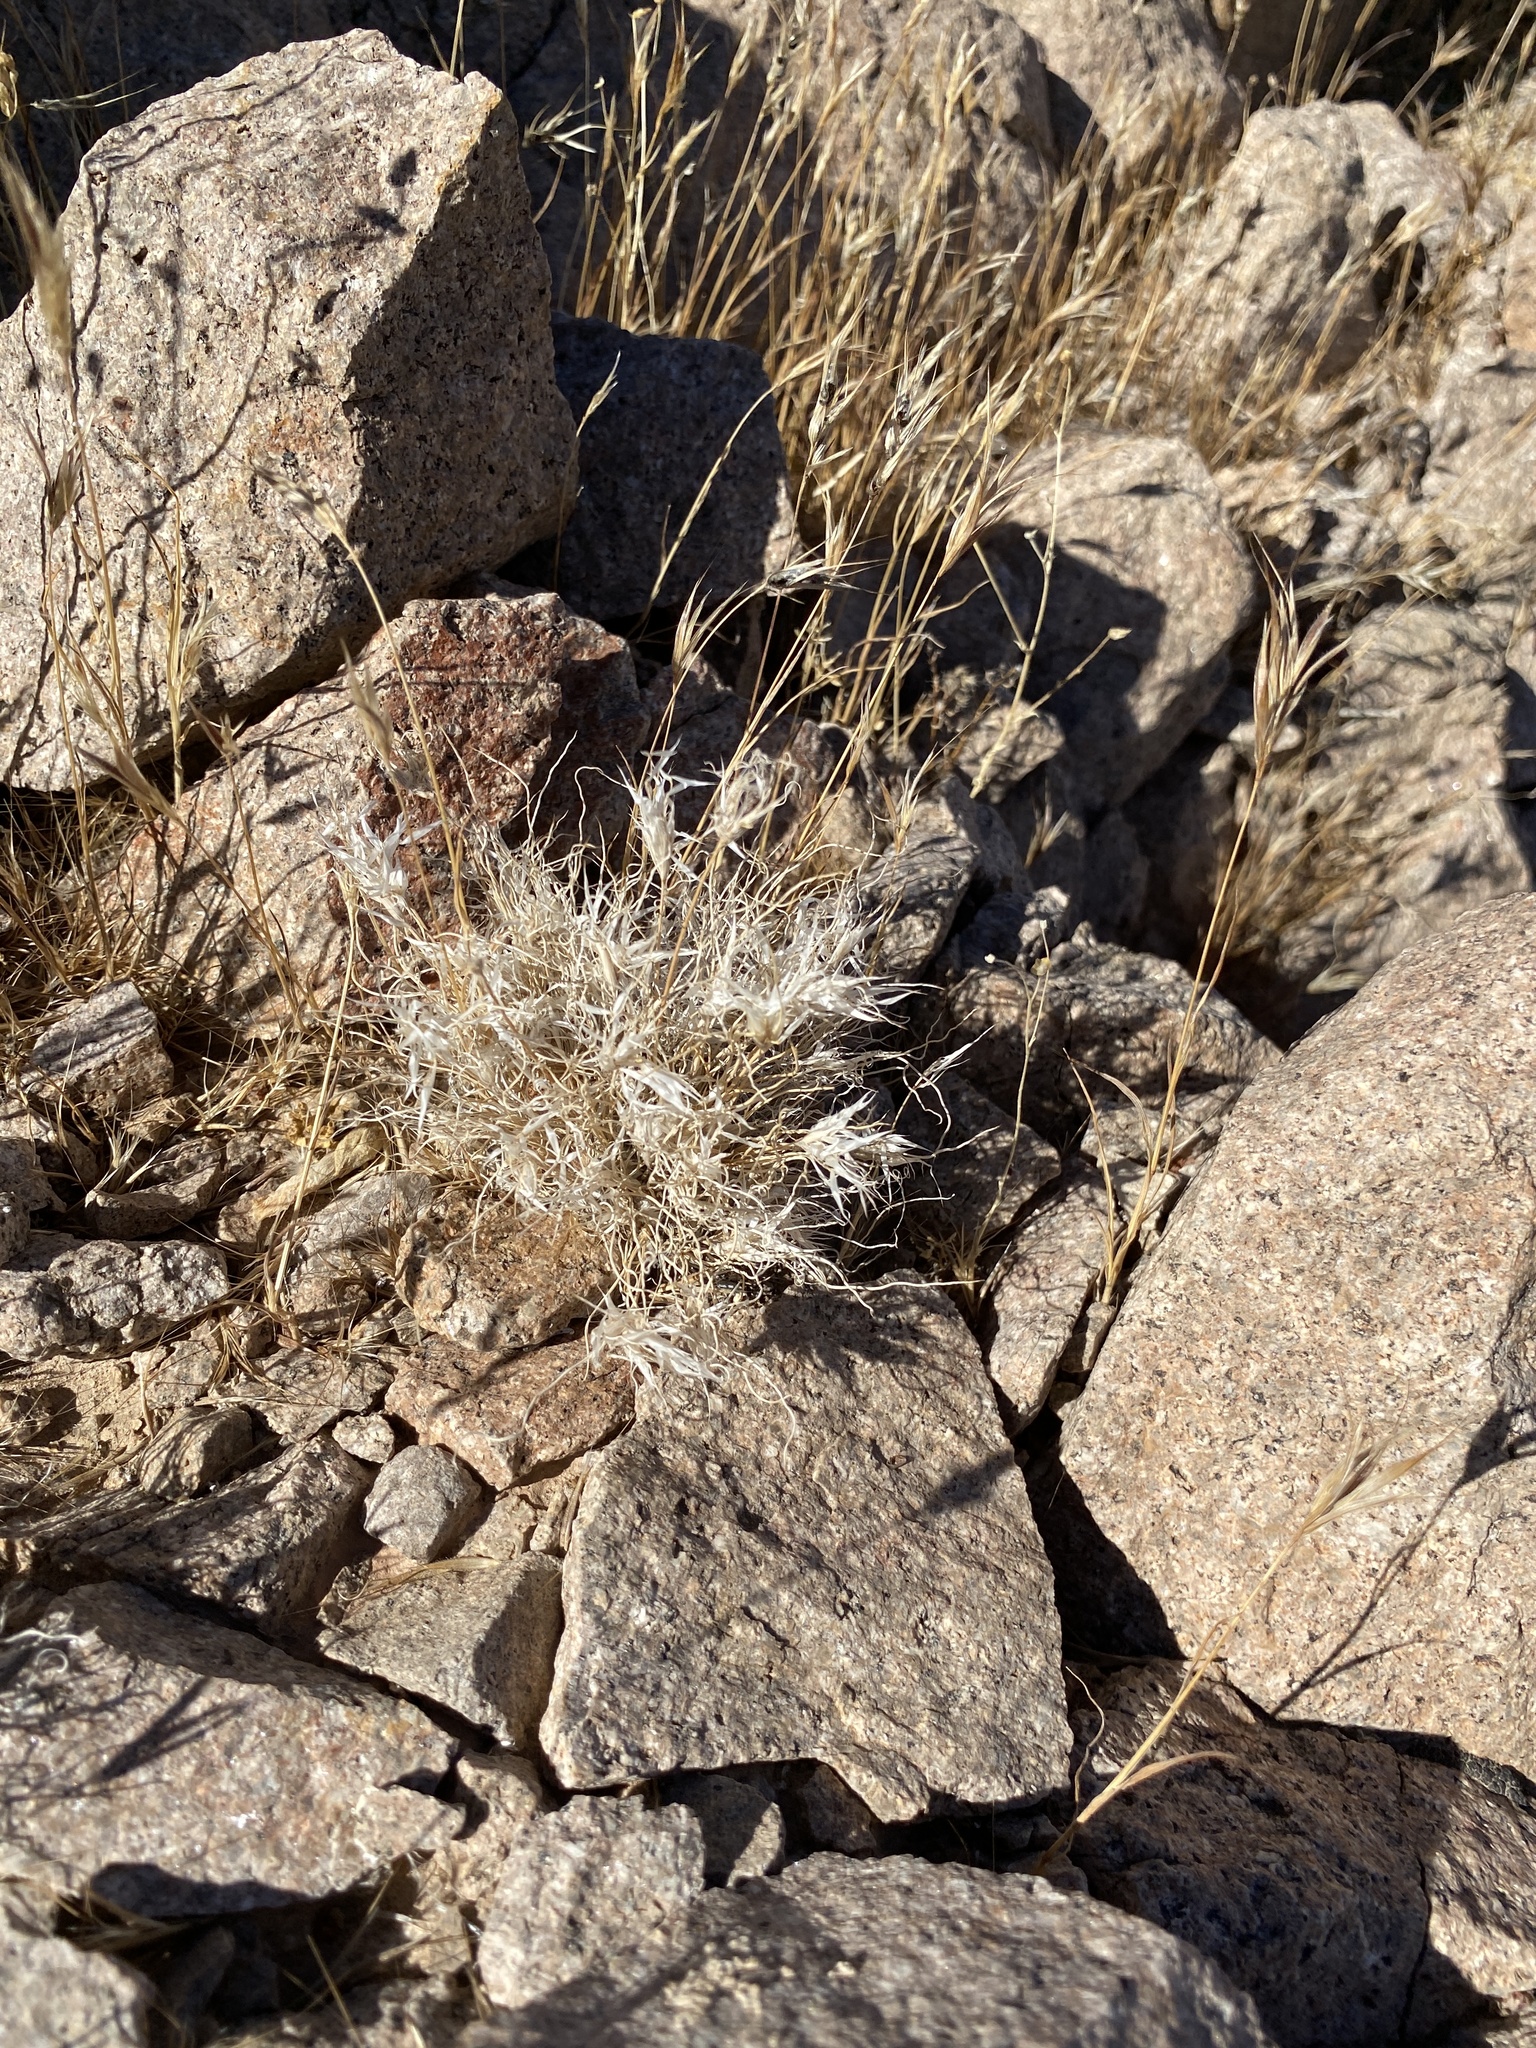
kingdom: Plantae
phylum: Tracheophyta
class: Liliopsida
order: Poales
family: Poaceae
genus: Dasyochloa
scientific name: Dasyochloa pulchella
